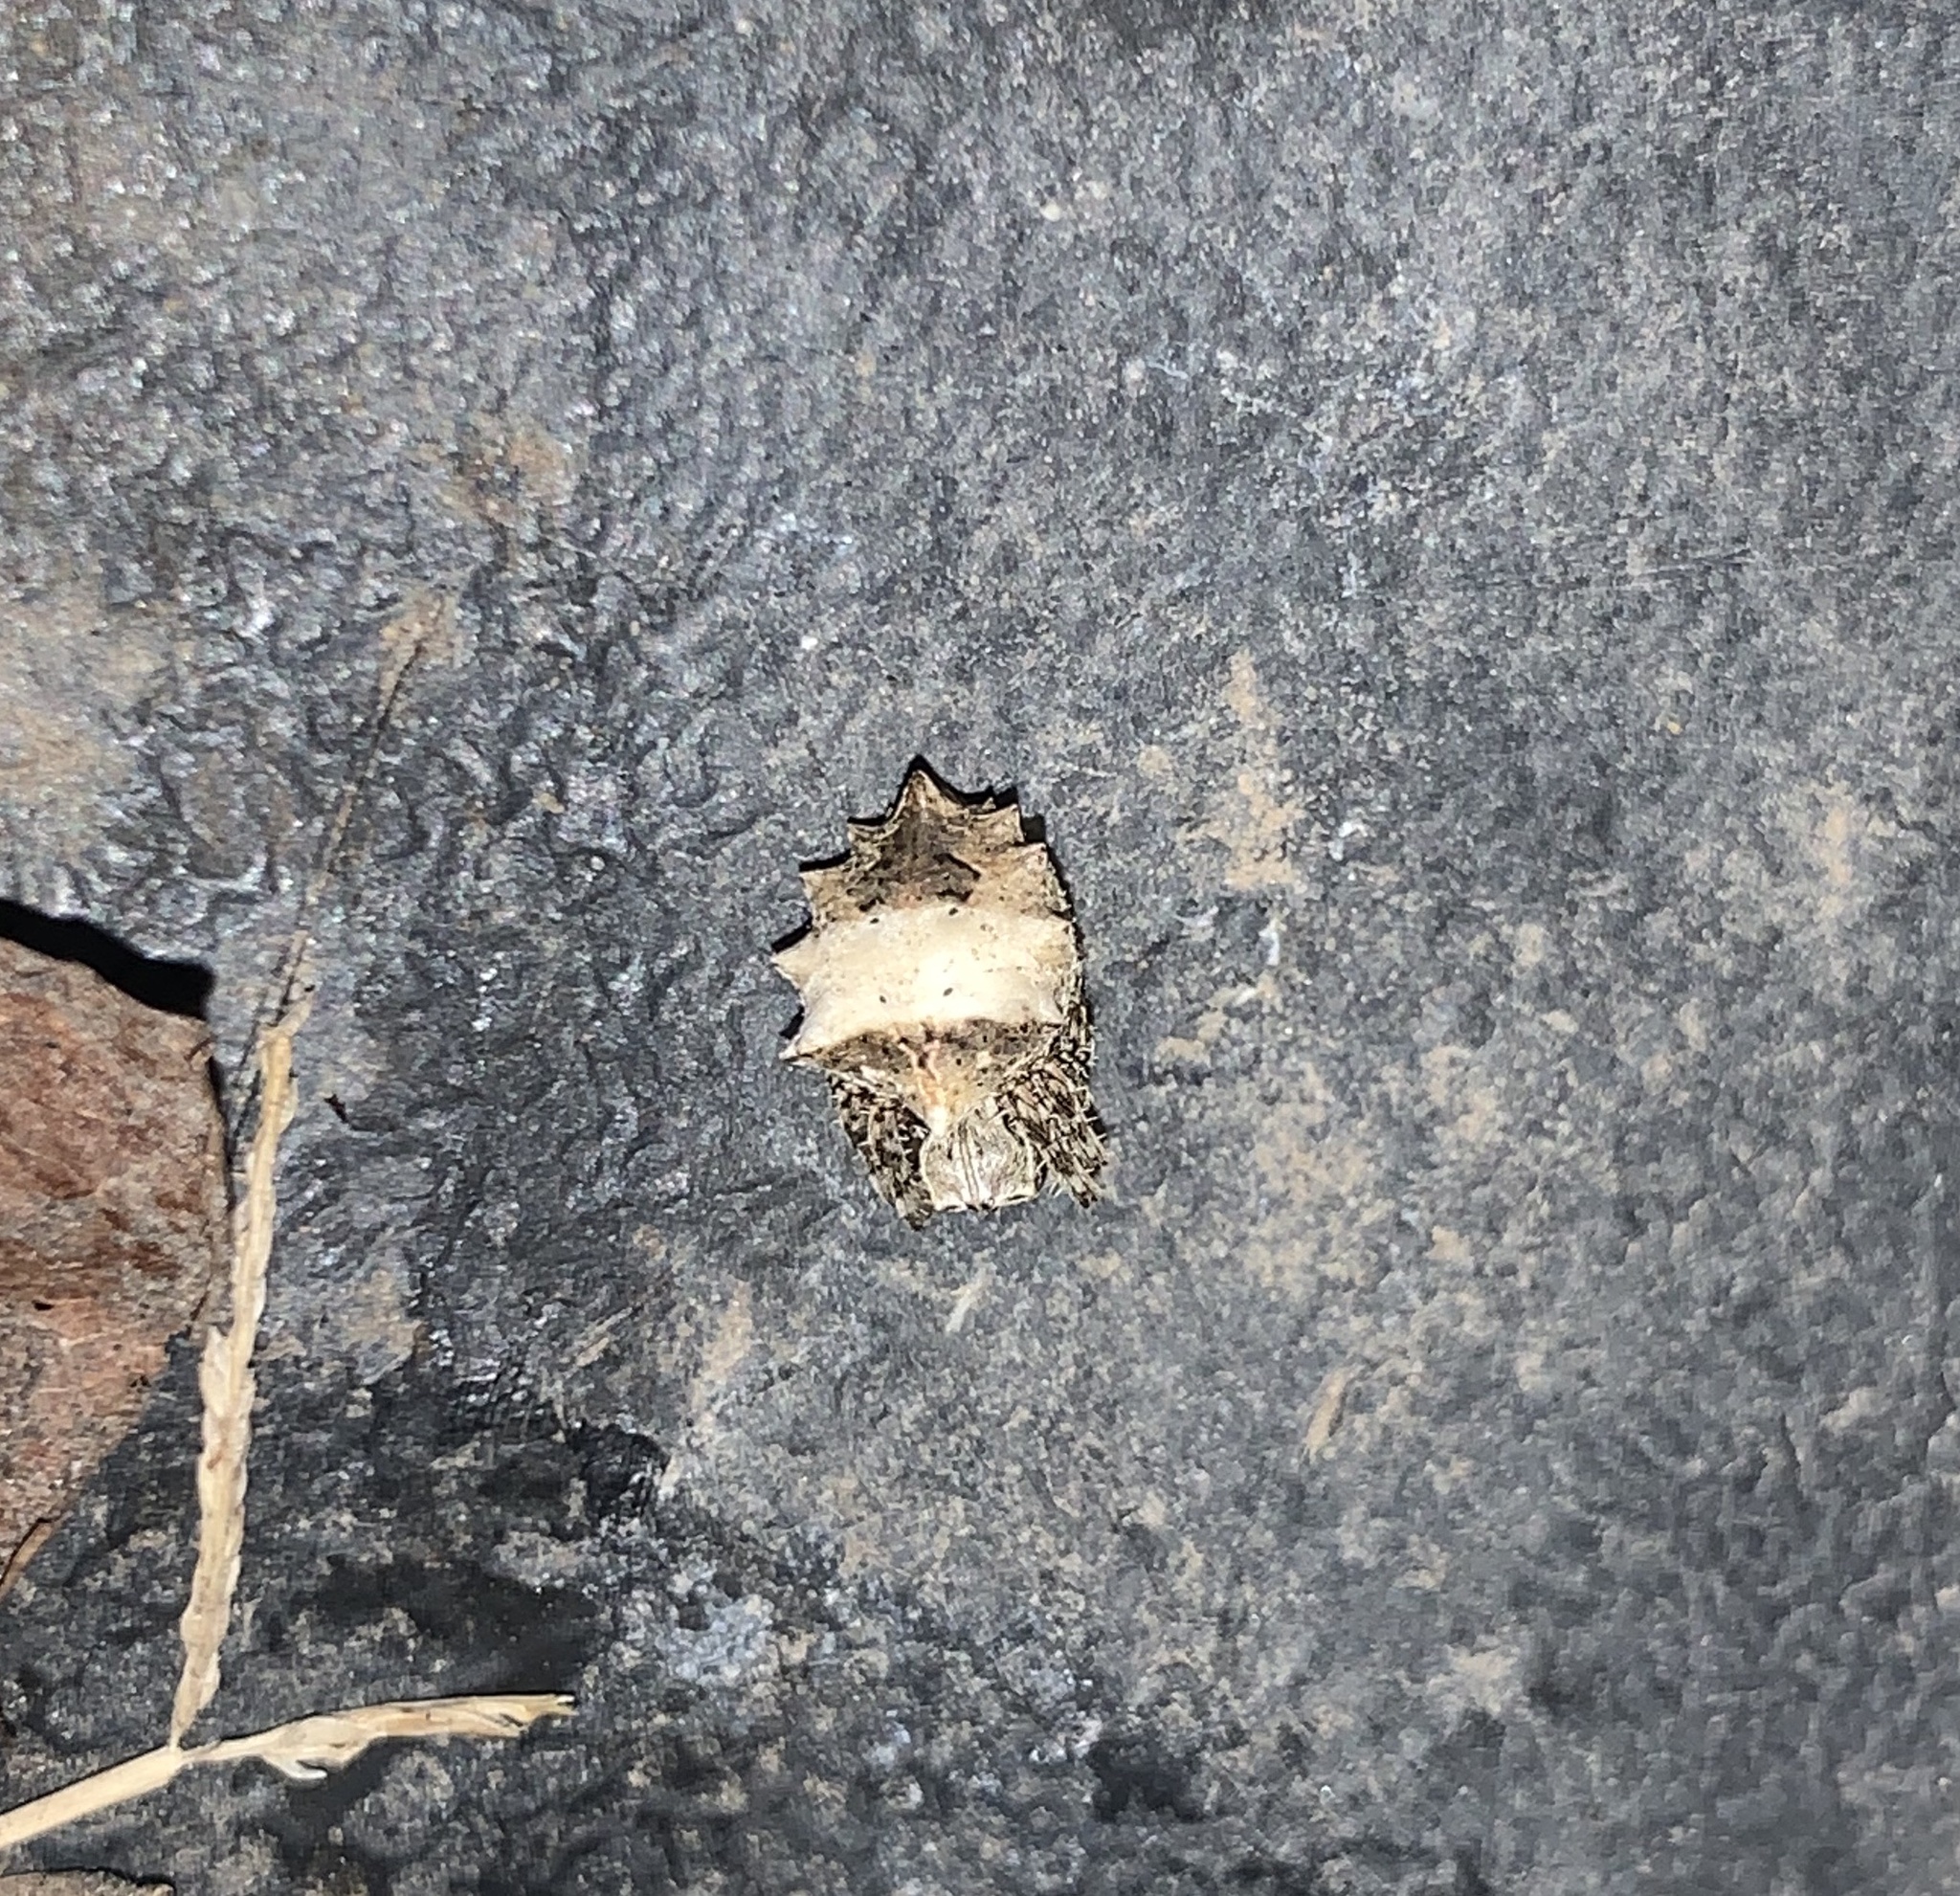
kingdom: Animalia
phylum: Arthropoda
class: Arachnida
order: Araneae
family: Araneidae
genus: Acanthepeira
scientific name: Acanthepeira stellata
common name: Starbellied orbweaver
